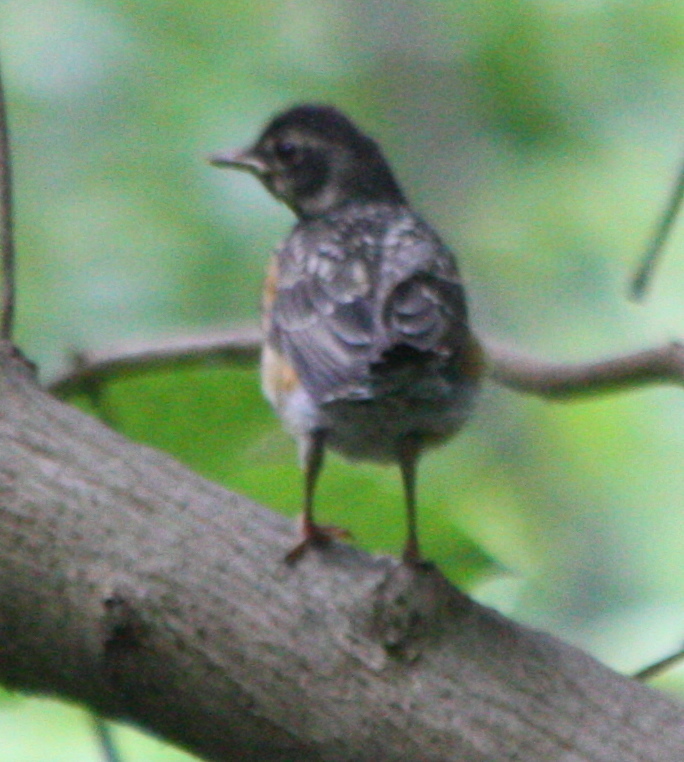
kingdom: Animalia
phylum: Chordata
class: Aves
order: Passeriformes
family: Turdidae
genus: Turdus
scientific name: Turdus migratorius
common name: American robin
